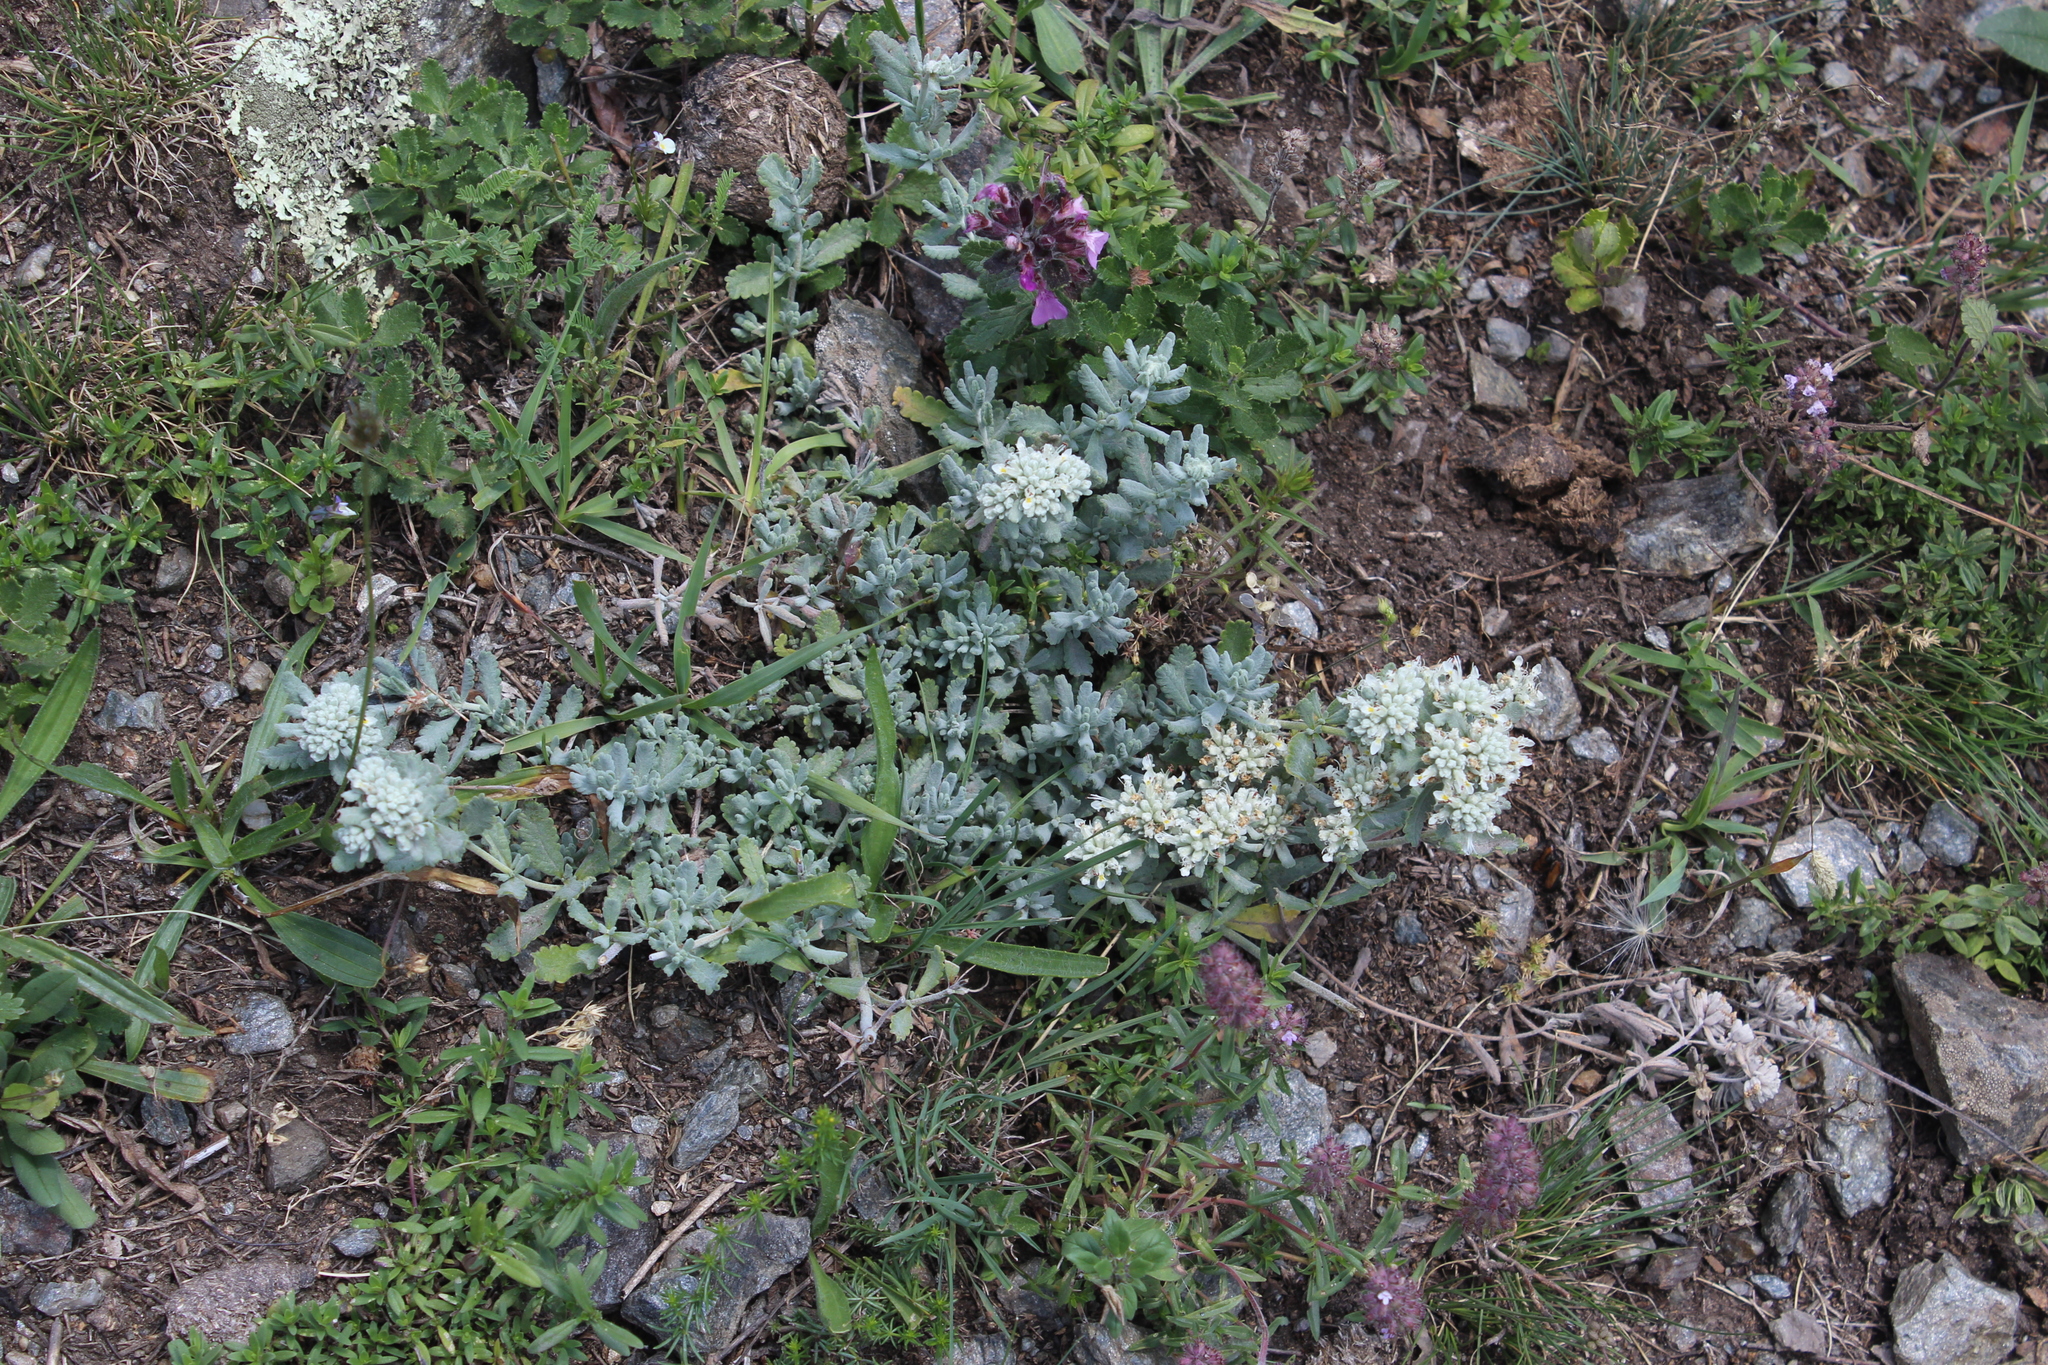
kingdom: Plantae
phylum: Tracheophyta
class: Magnoliopsida
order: Lamiales
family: Lamiaceae
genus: Teucrium
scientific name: Teucrium polium
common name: Poley
